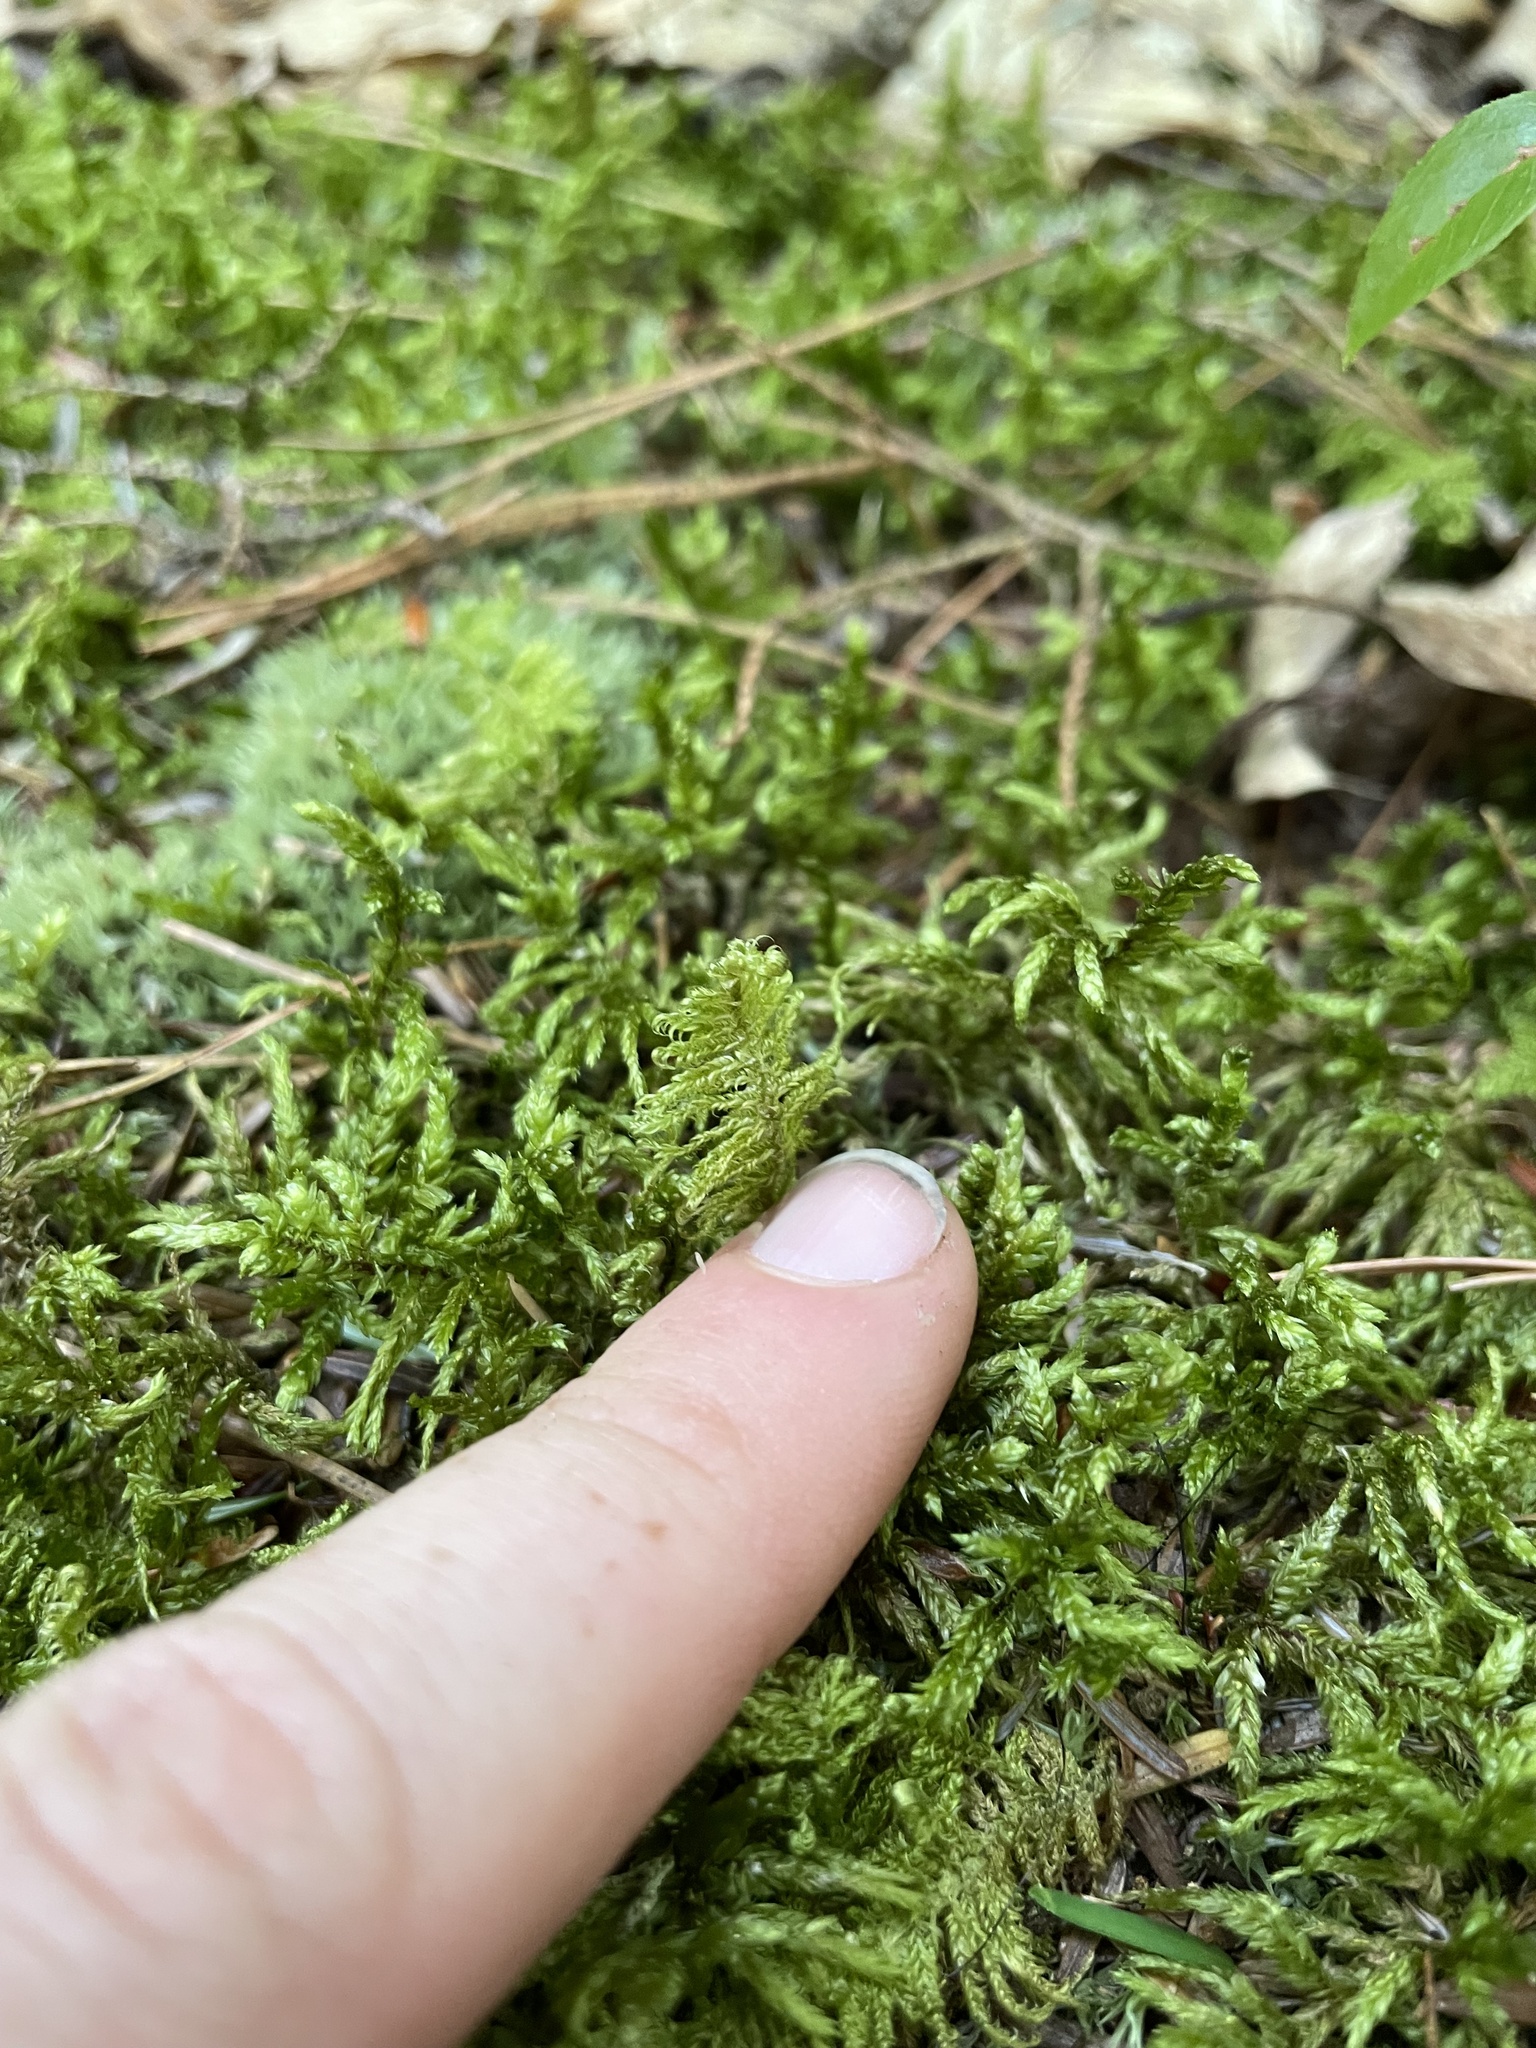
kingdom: Plantae
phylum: Bryophyta
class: Bryopsida
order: Hypnales
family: Hylocomiaceae
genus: Pleurozium
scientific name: Pleurozium schreberi
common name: Red-stemmed feather moss
